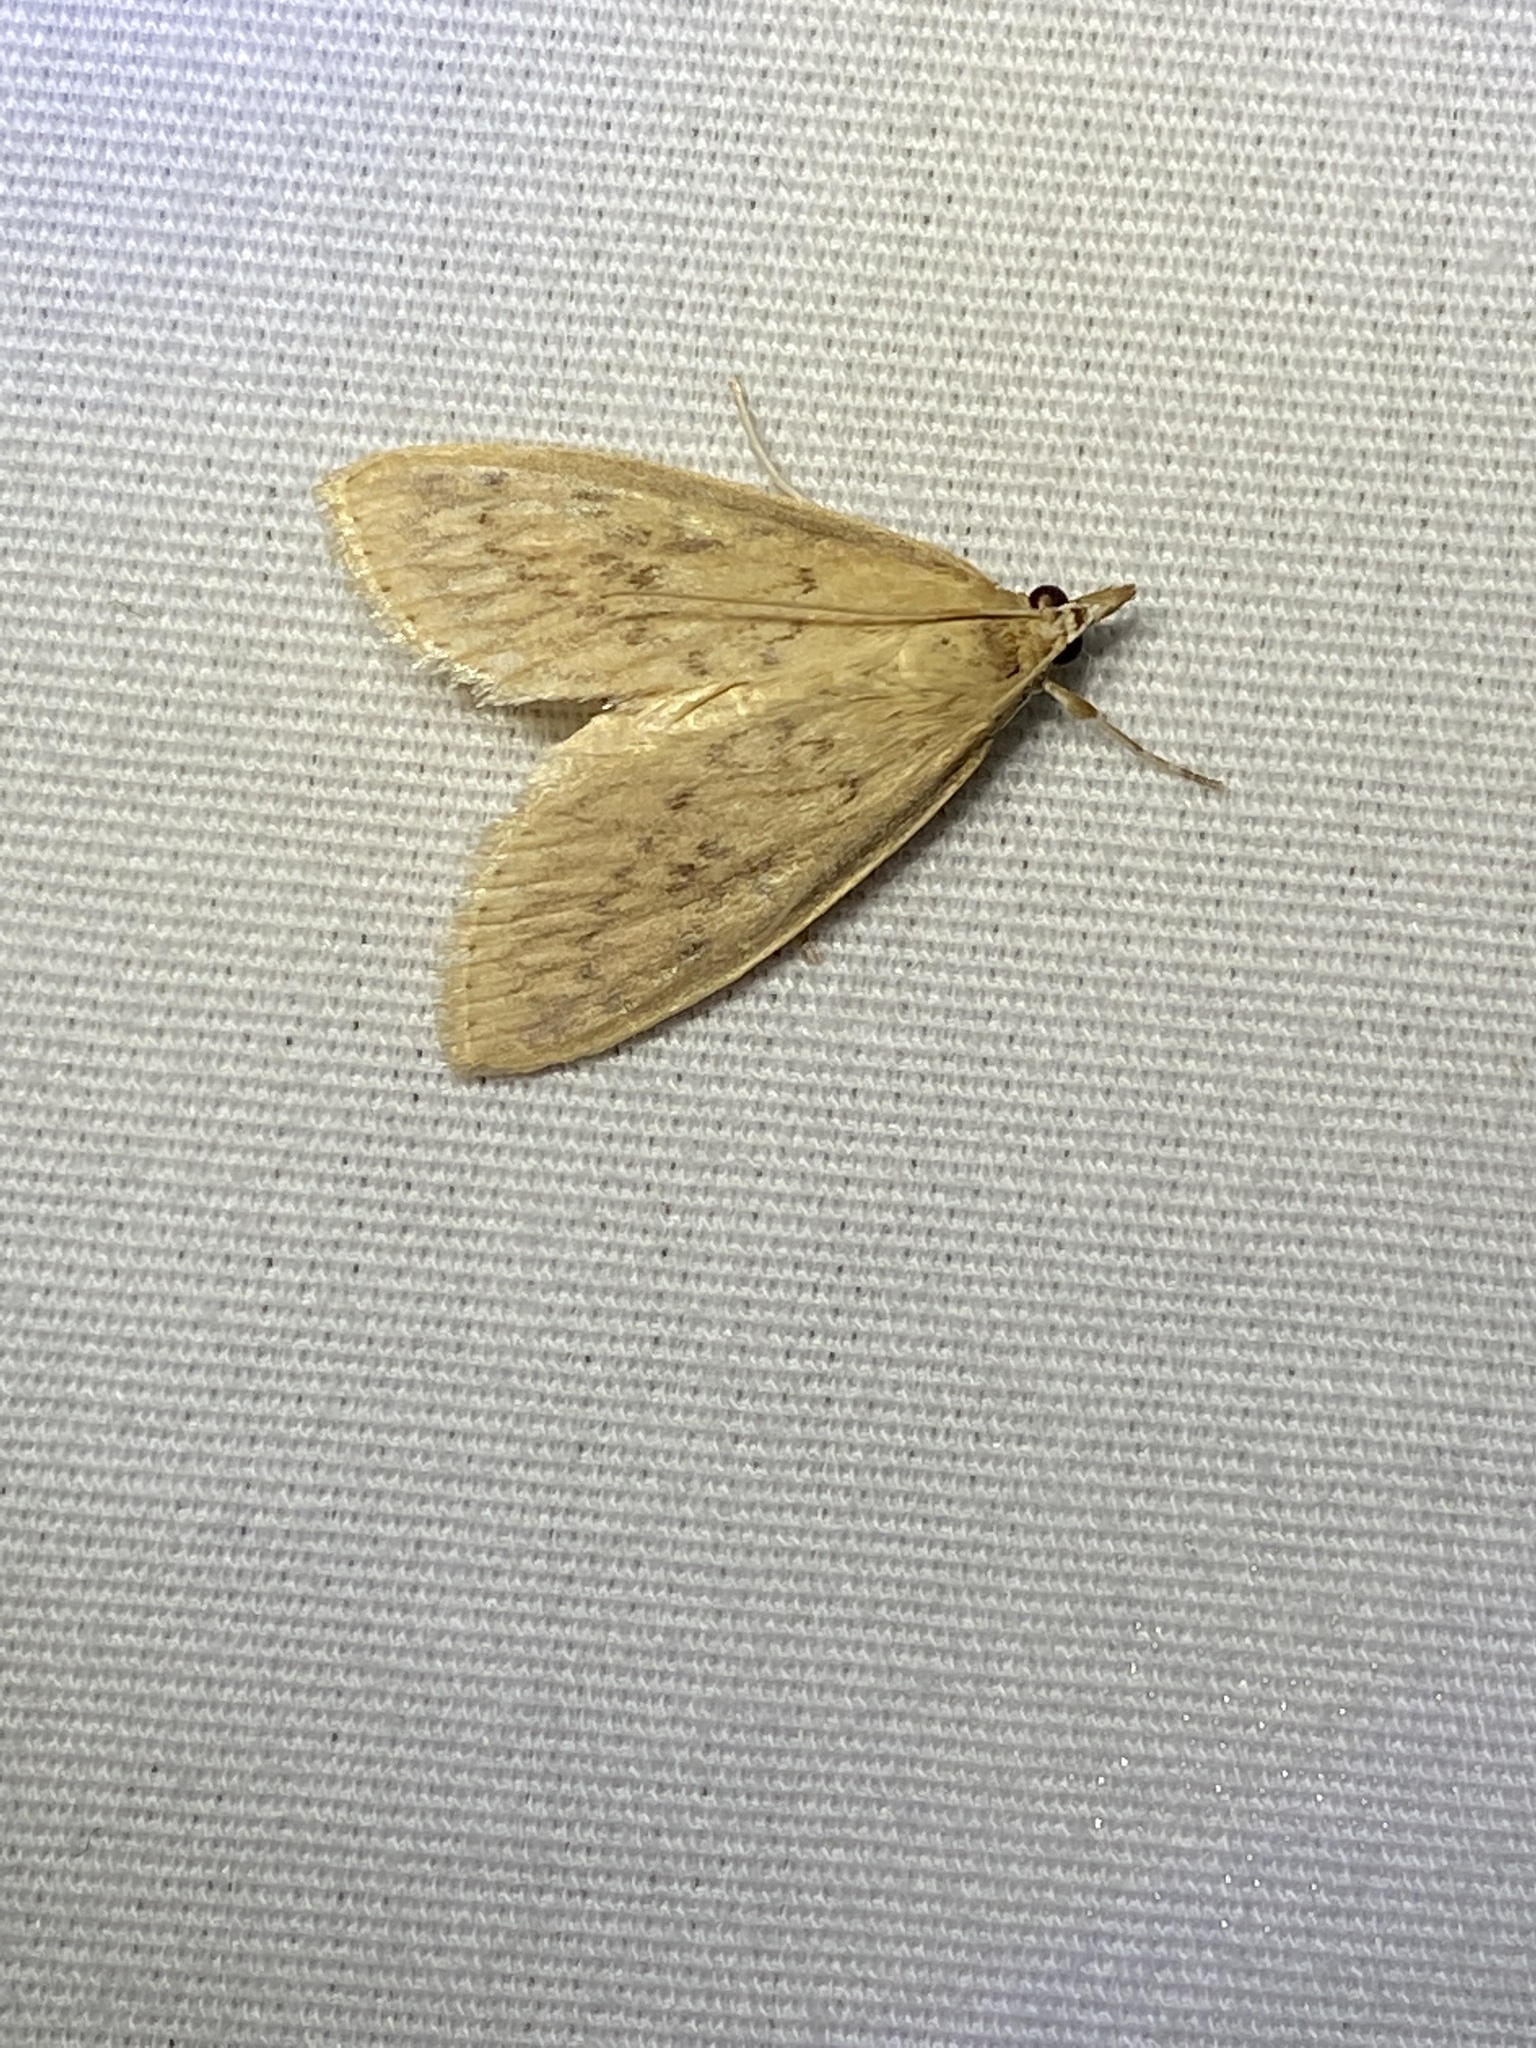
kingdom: Animalia
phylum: Arthropoda
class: Insecta
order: Lepidoptera
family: Crambidae
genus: Crocidophora
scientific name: Crocidophora pustuliferalis
